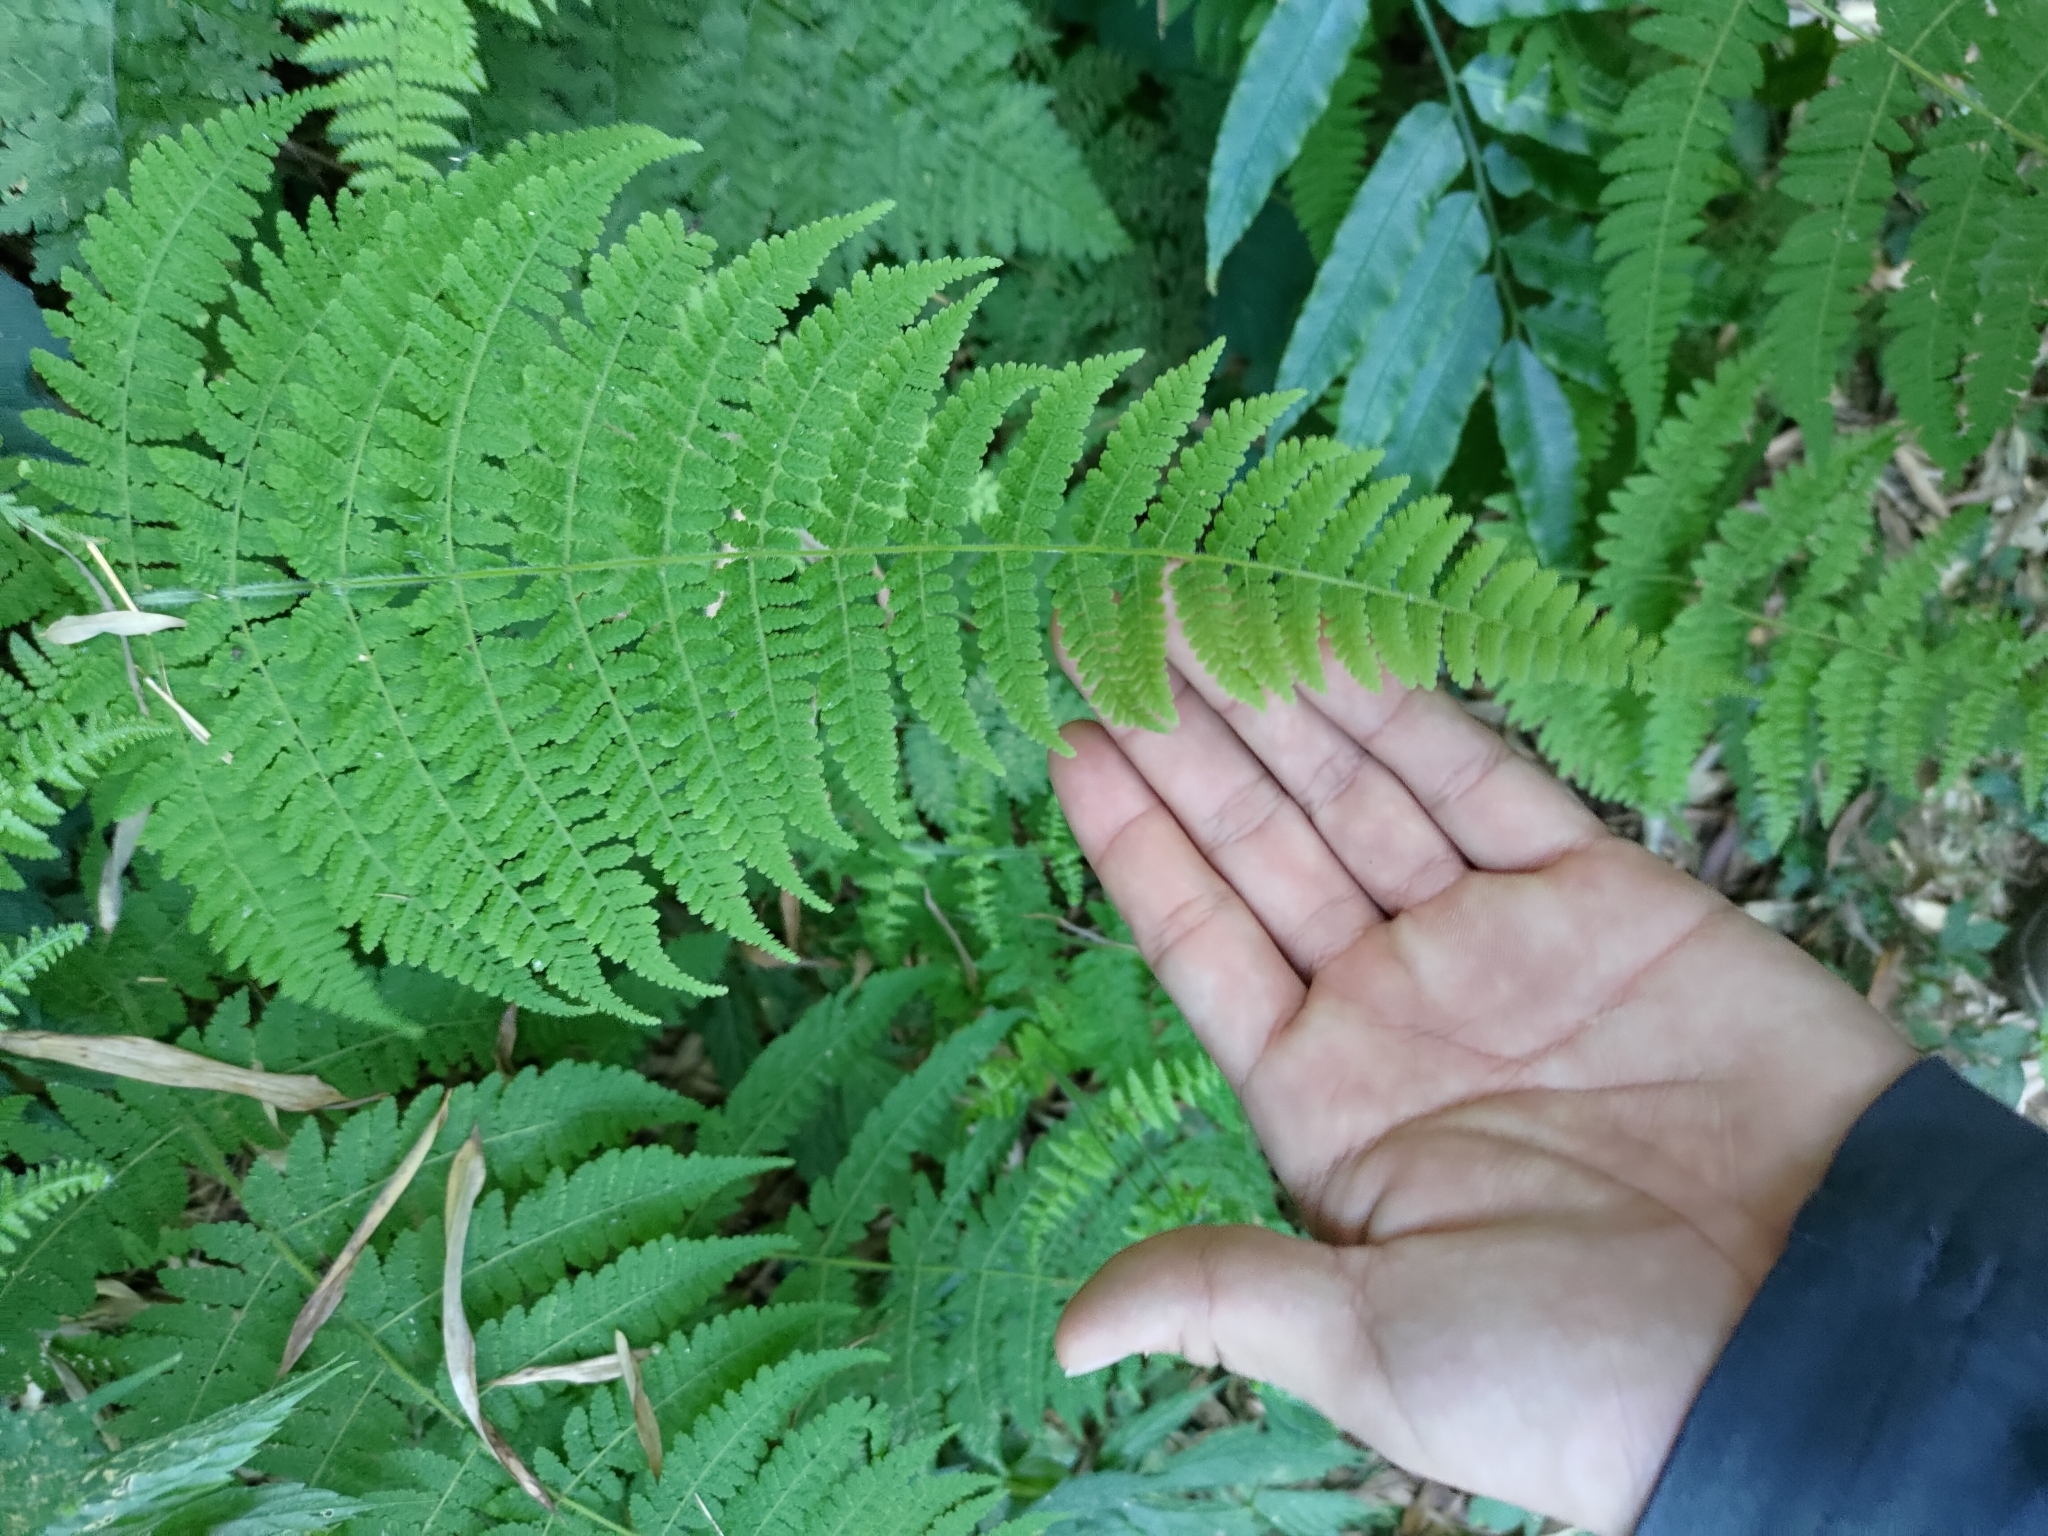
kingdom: Plantae
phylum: Tracheophyta
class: Polypodiopsida
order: Polypodiales
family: Cystopteridaceae
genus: Acystopteris
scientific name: Acystopteris tenuisecta
